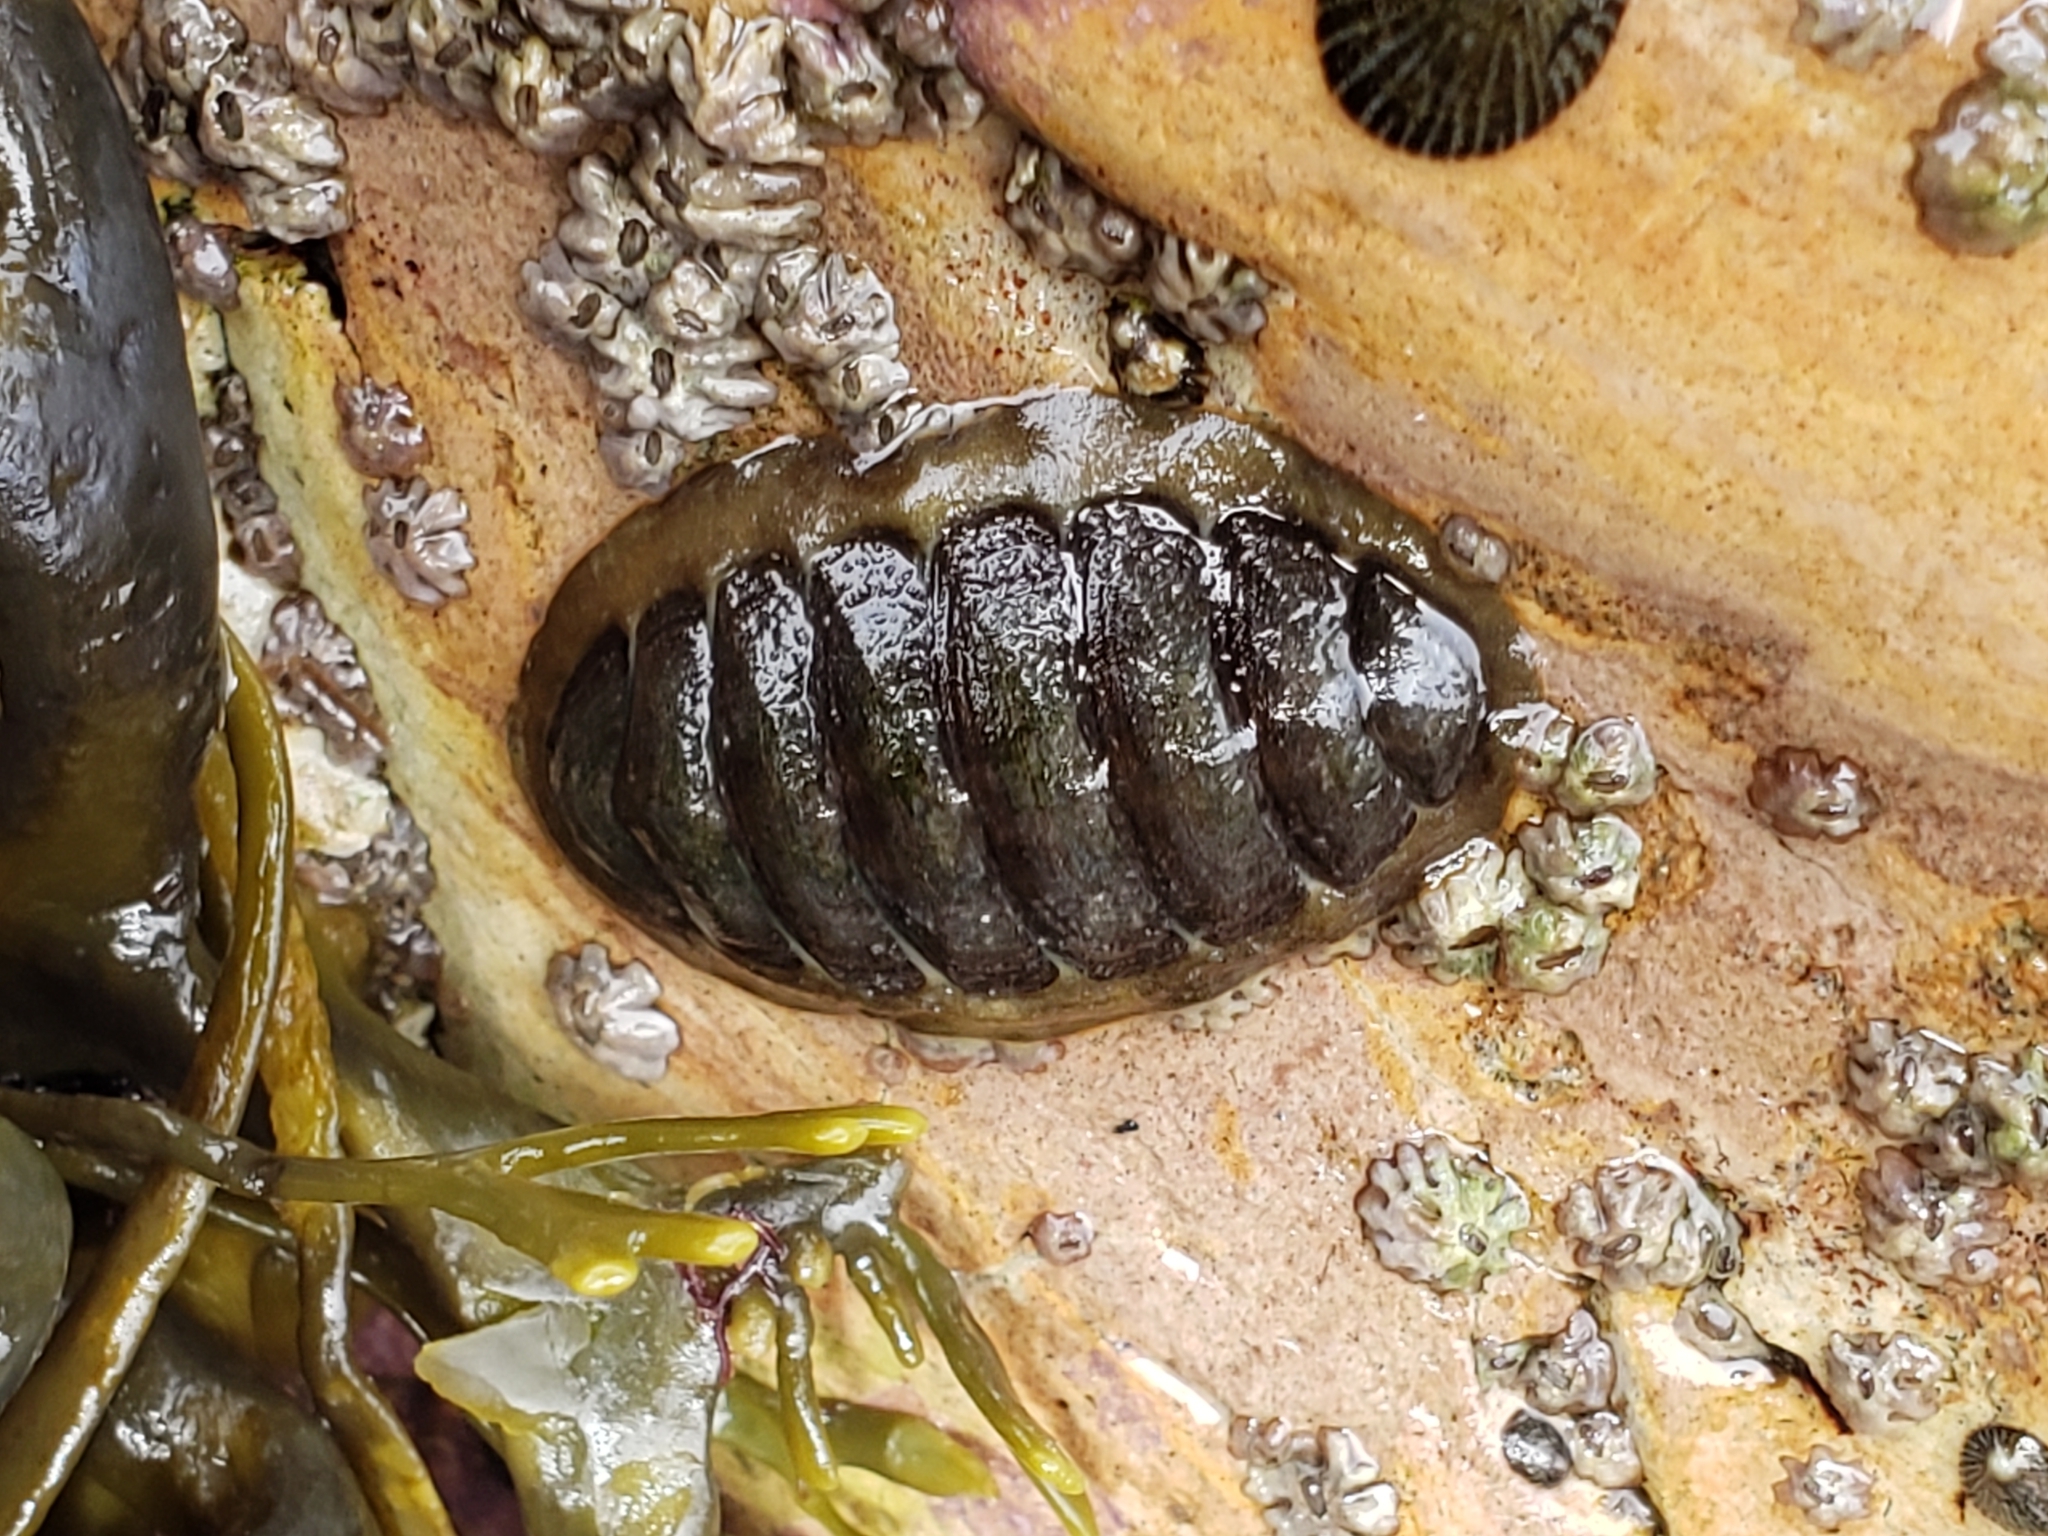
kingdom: Animalia
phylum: Mollusca
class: Polyplacophora
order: Chitonida
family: Tonicellidae
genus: Cyanoplax
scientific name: Cyanoplax hartwegii
